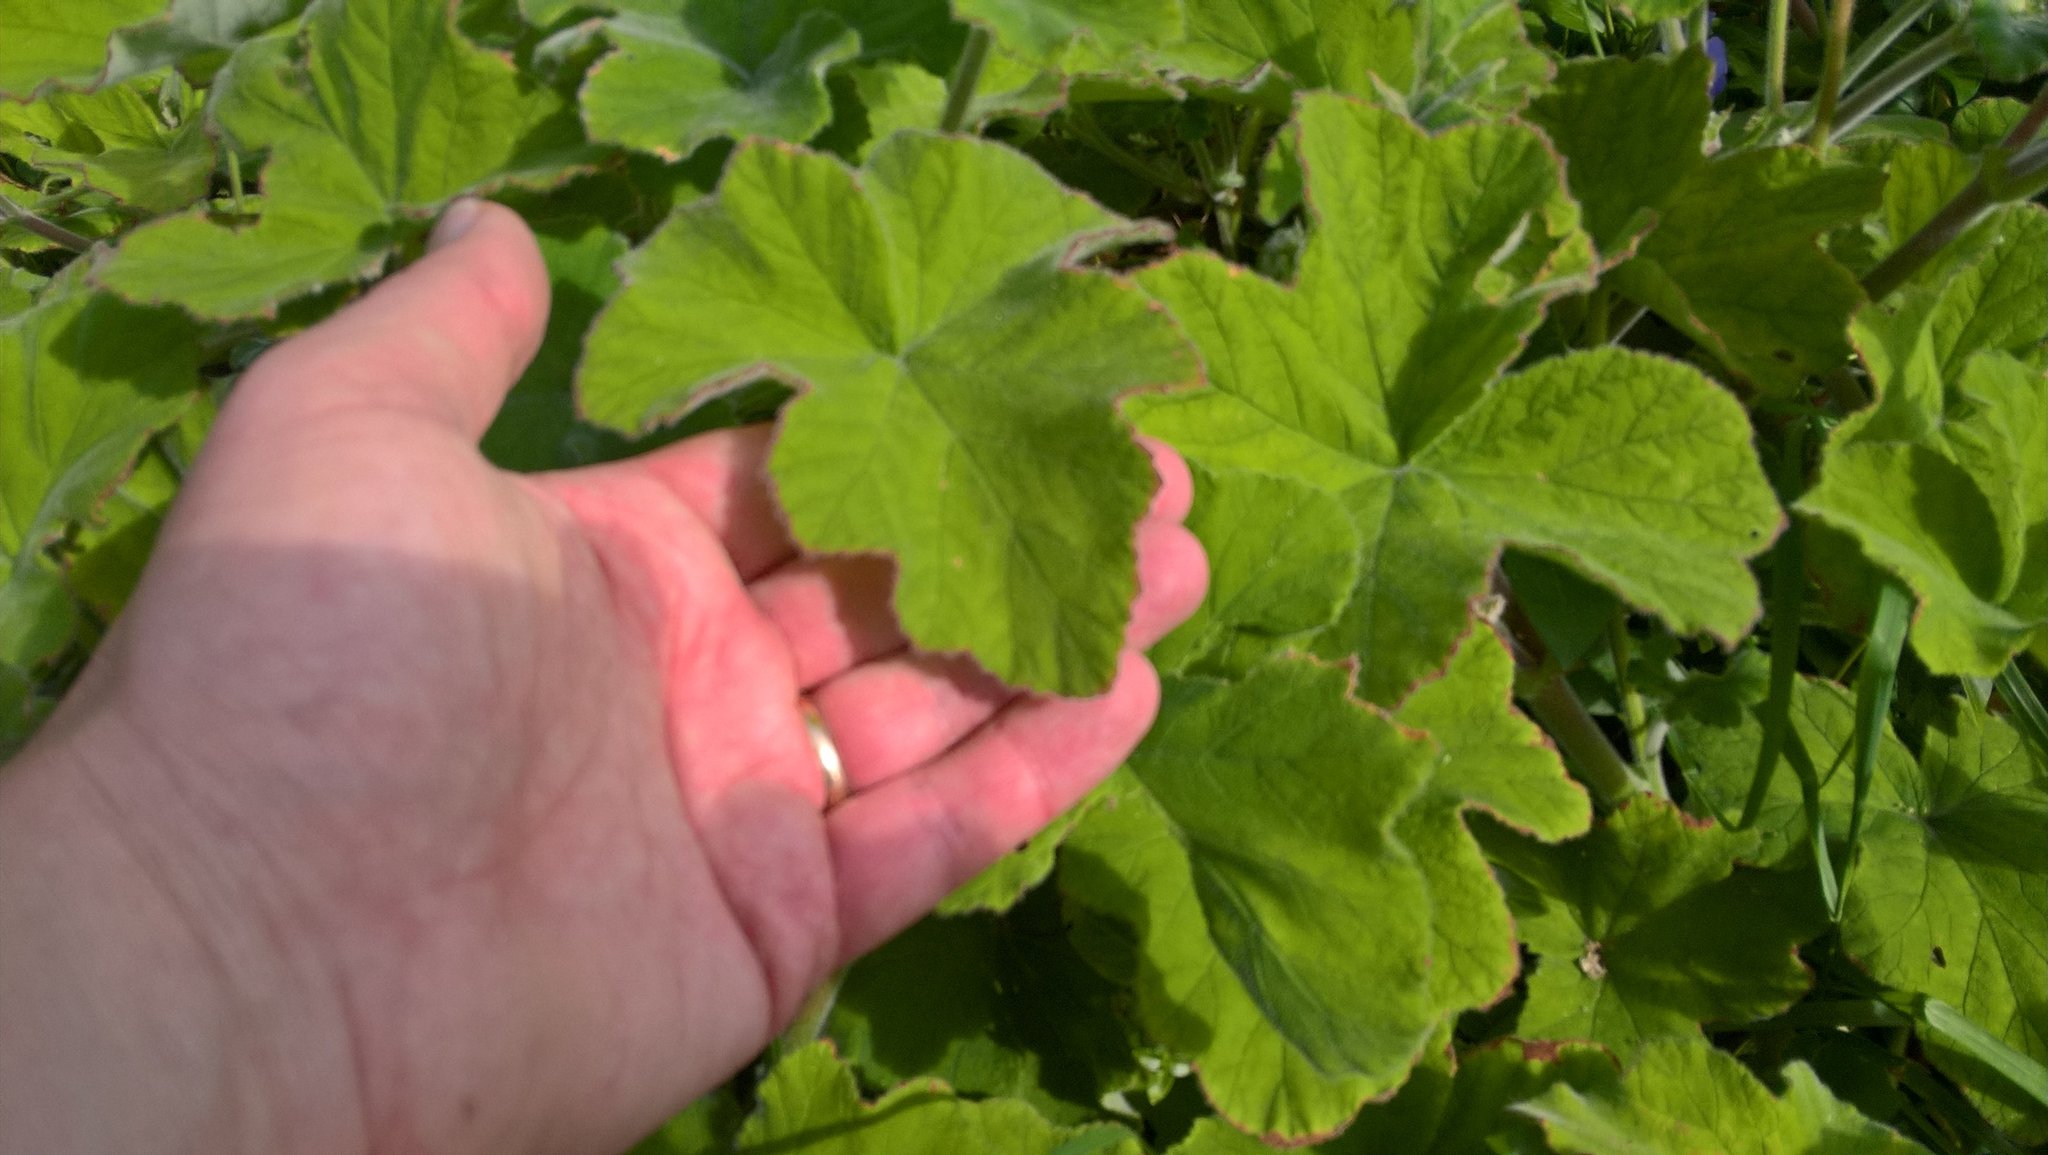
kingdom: Plantae
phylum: Tracheophyta
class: Magnoliopsida
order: Geraniales
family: Geraniaceae
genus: Pelargonium
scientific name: Pelargonium tomentosum
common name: Peppermint-scented geranium
